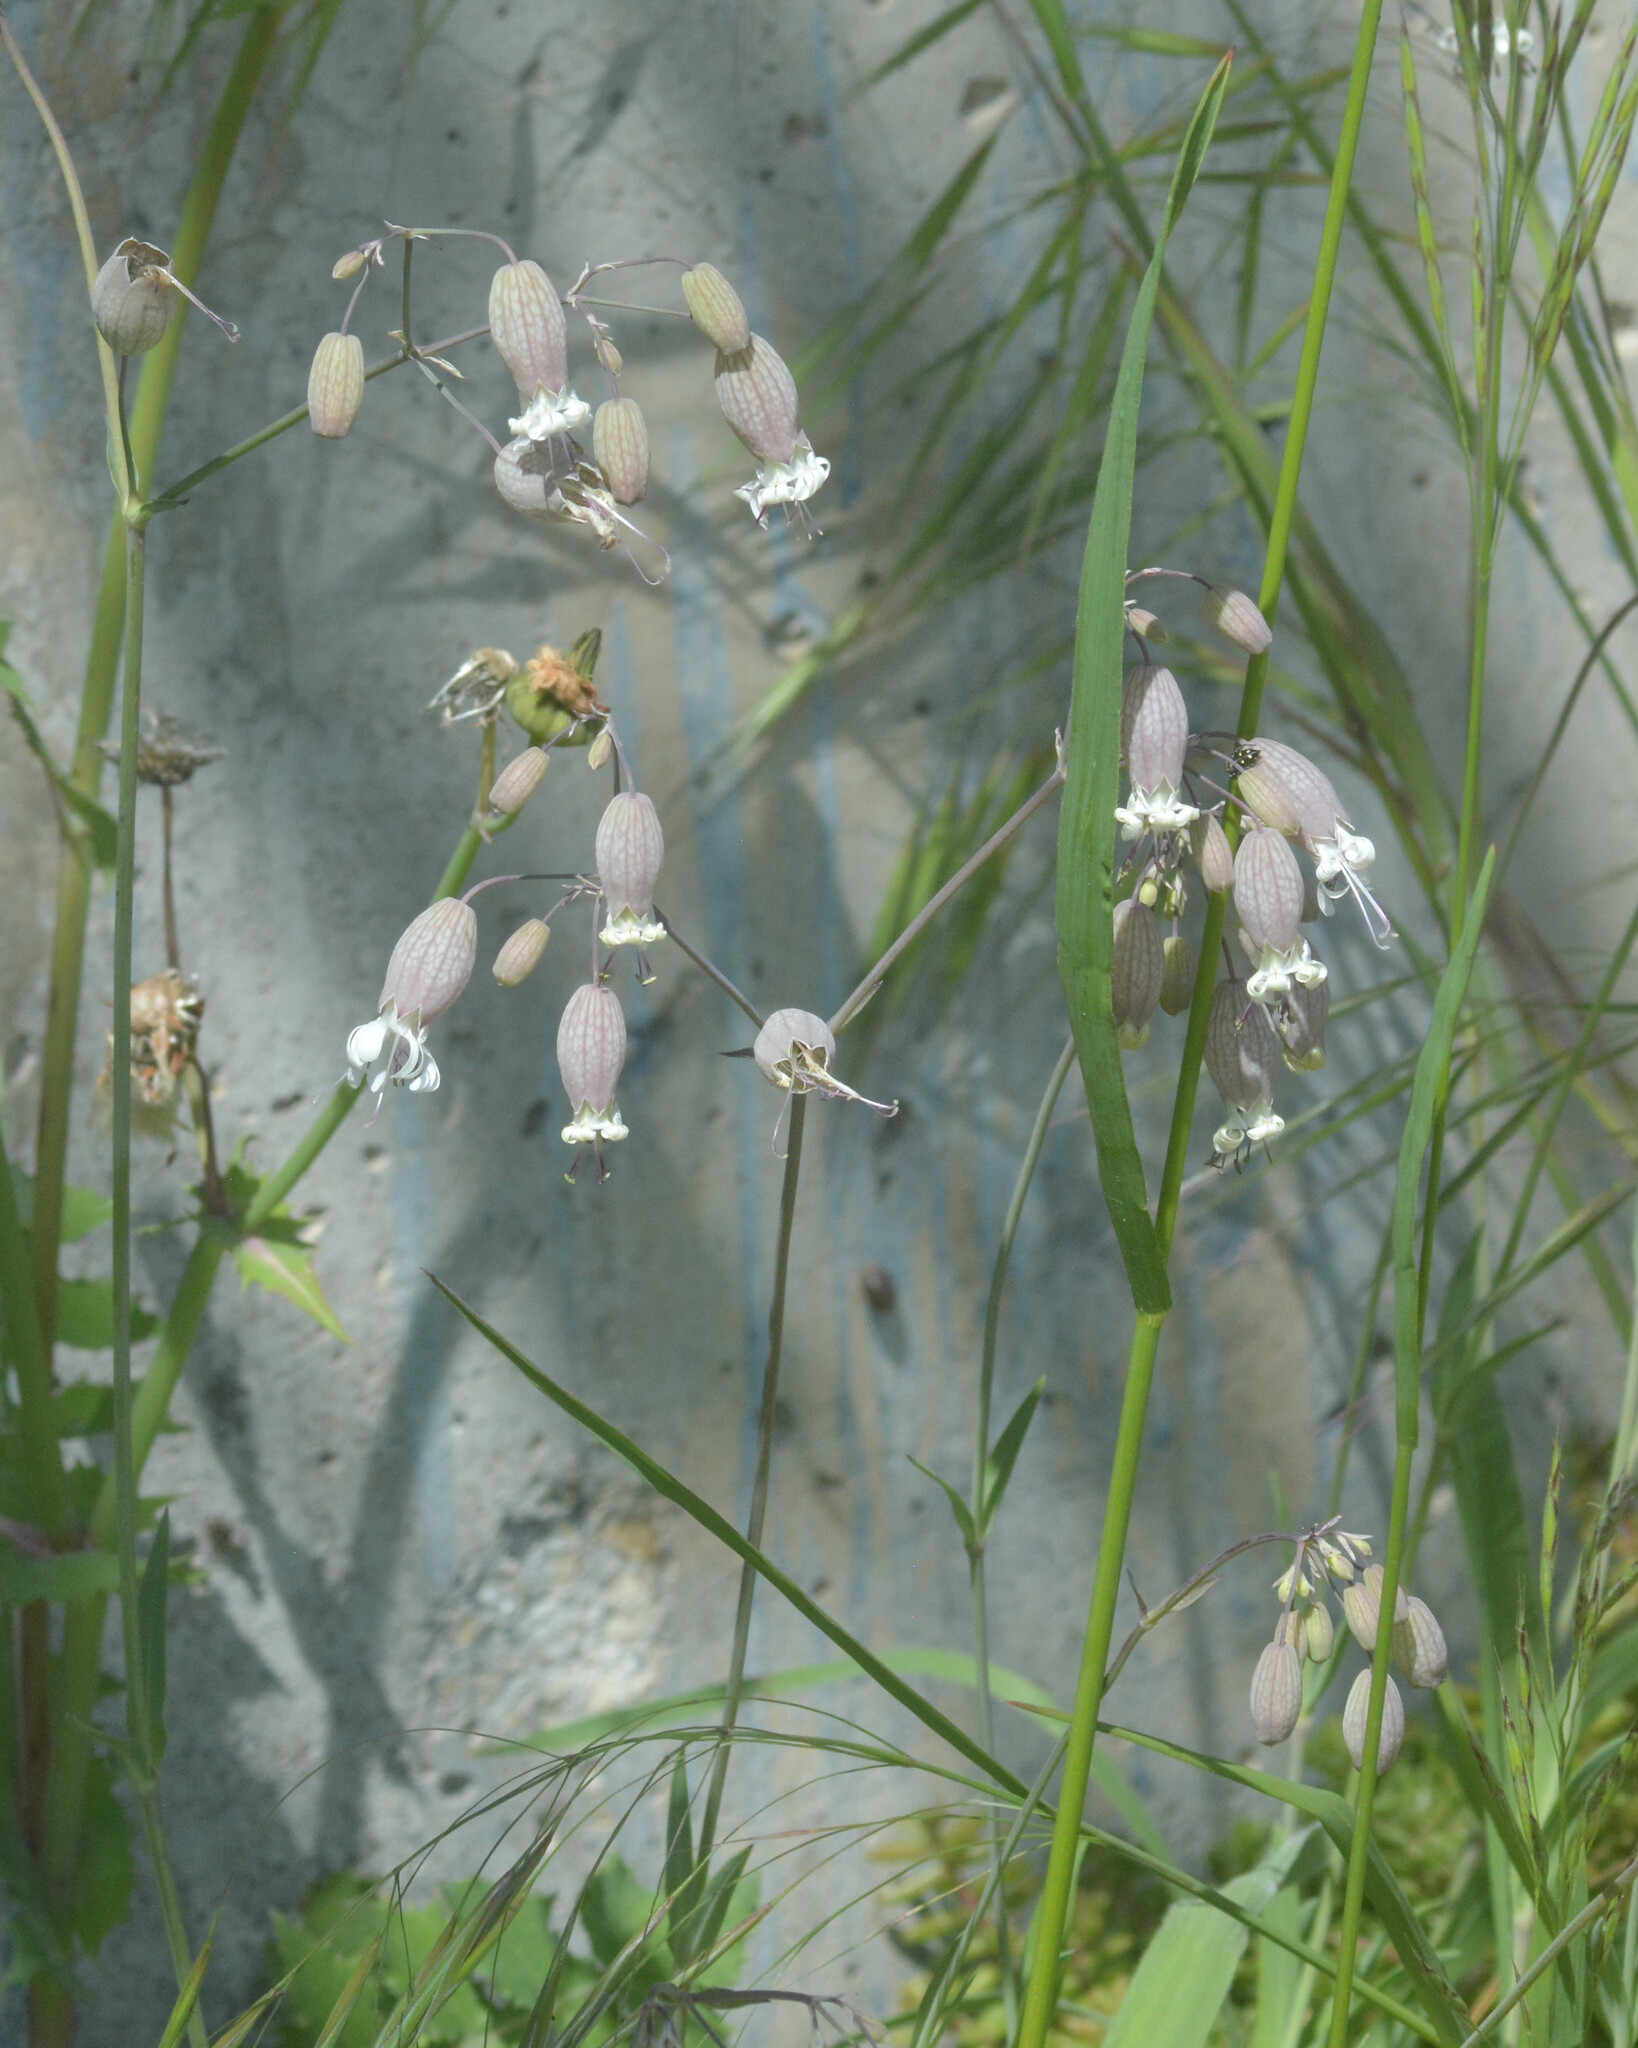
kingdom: Plantae
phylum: Tracheophyta
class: Magnoliopsida
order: Caryophyllales
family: Caryophyllaceae
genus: Silene
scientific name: Silene vulgaris
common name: Bladder campion
